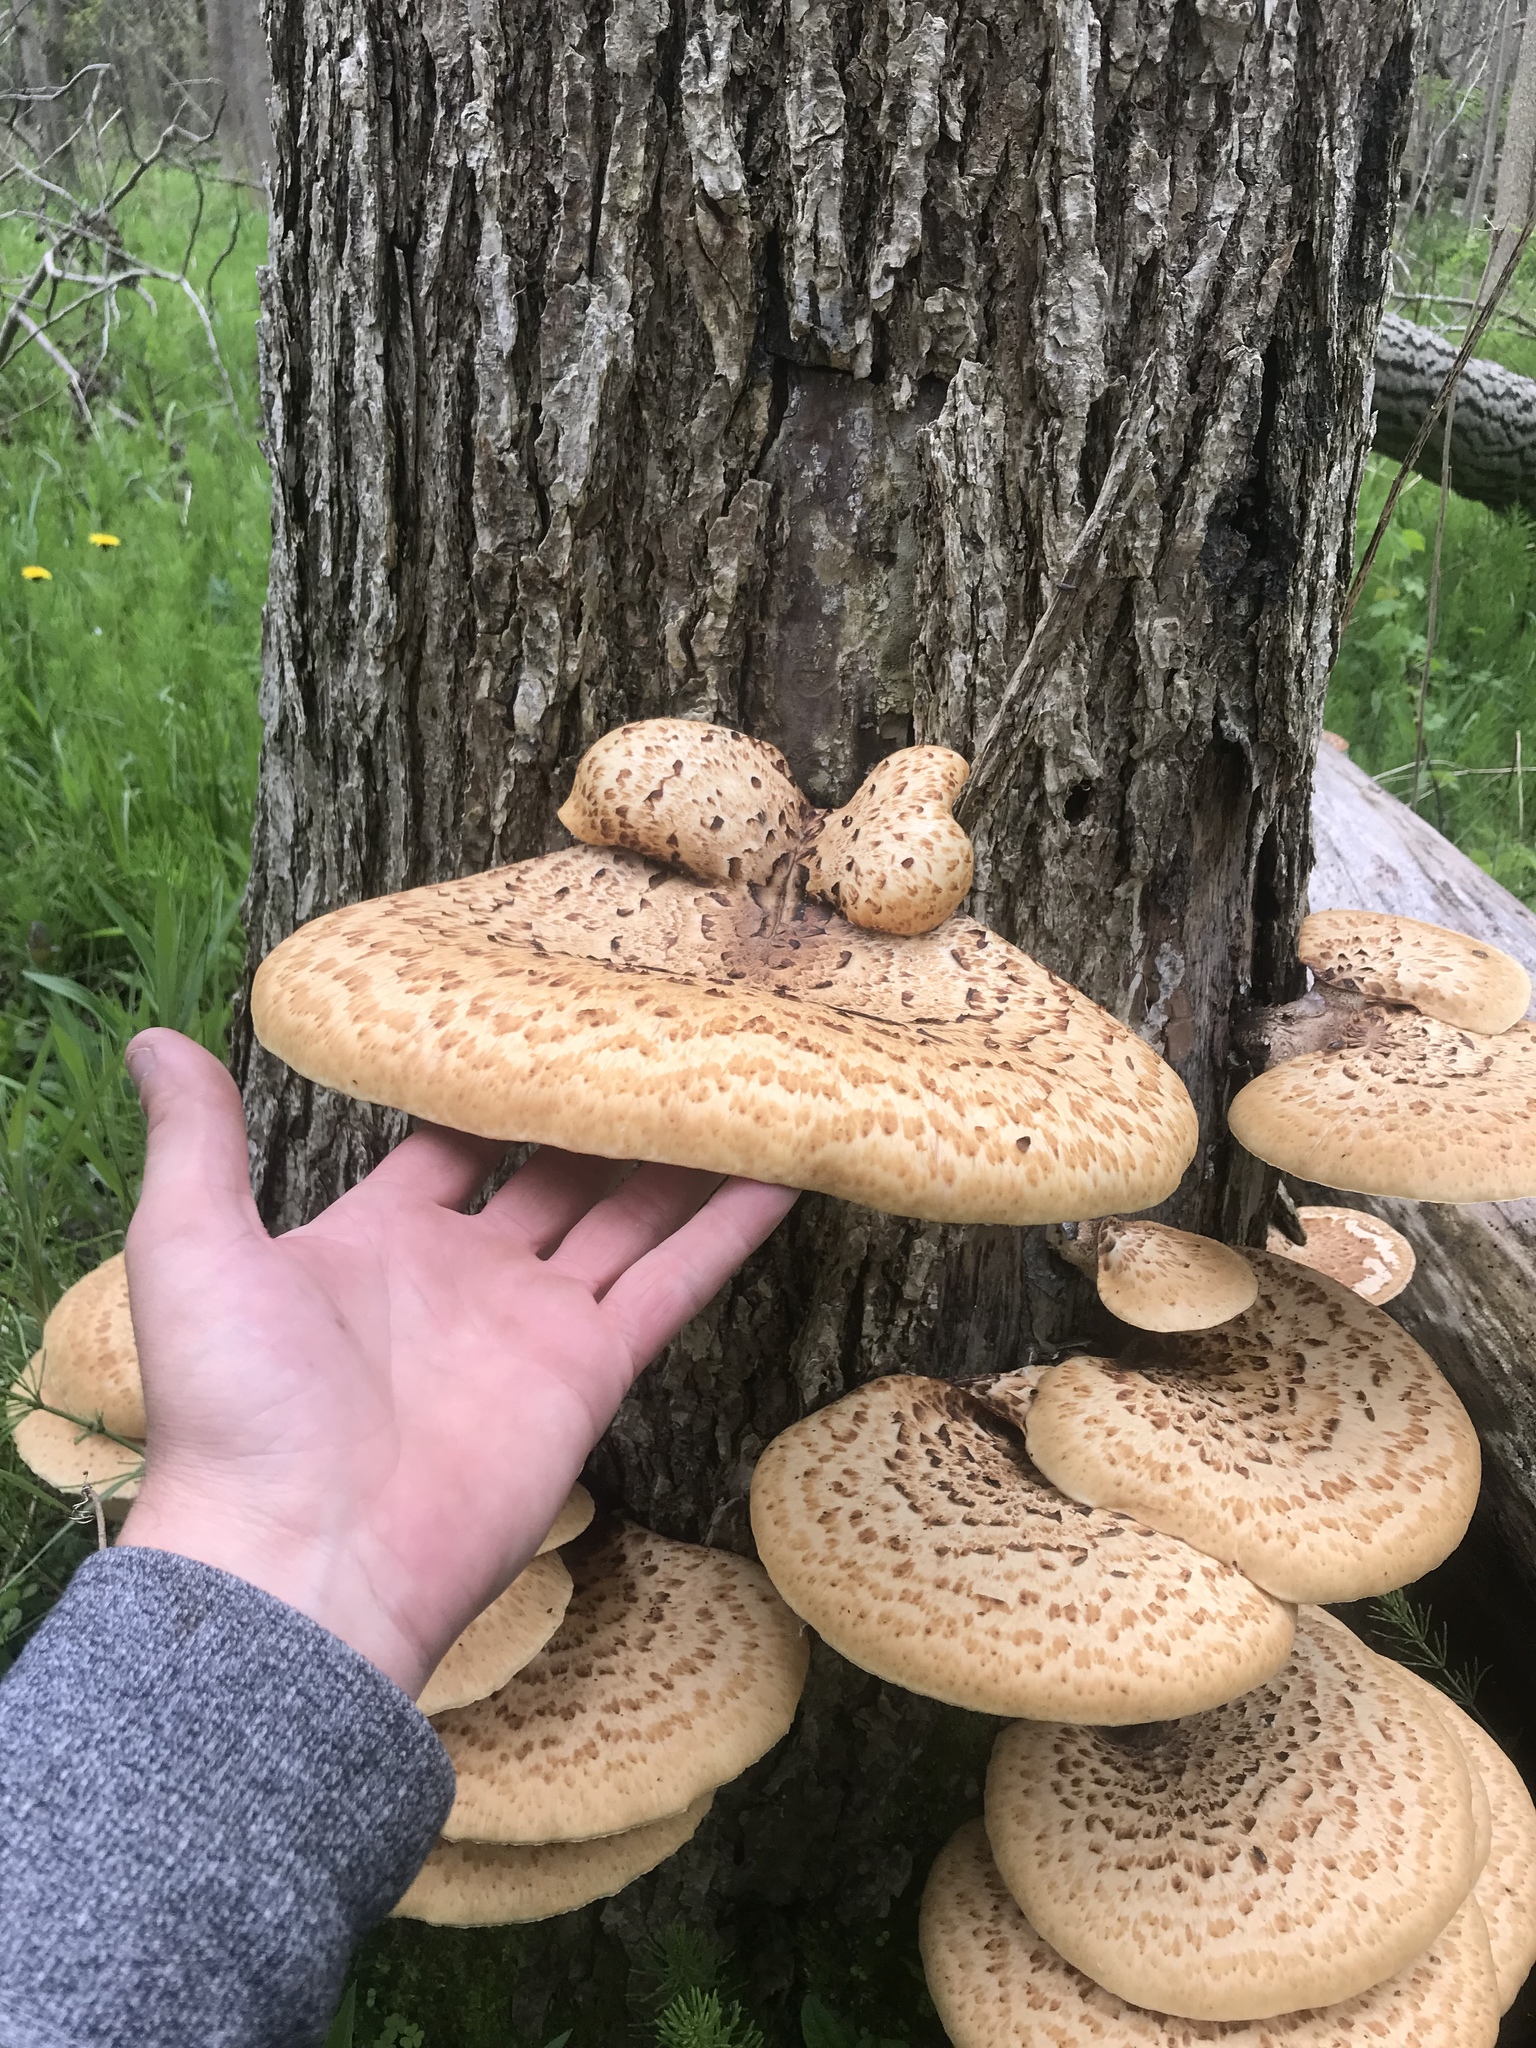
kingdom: Fungi
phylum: Basidiomycota
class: Agaricomycetes
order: Polyporales
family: Polyporaceae
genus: Cerioporus
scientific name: Cerioporus squamosus
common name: Dryad's saddle
